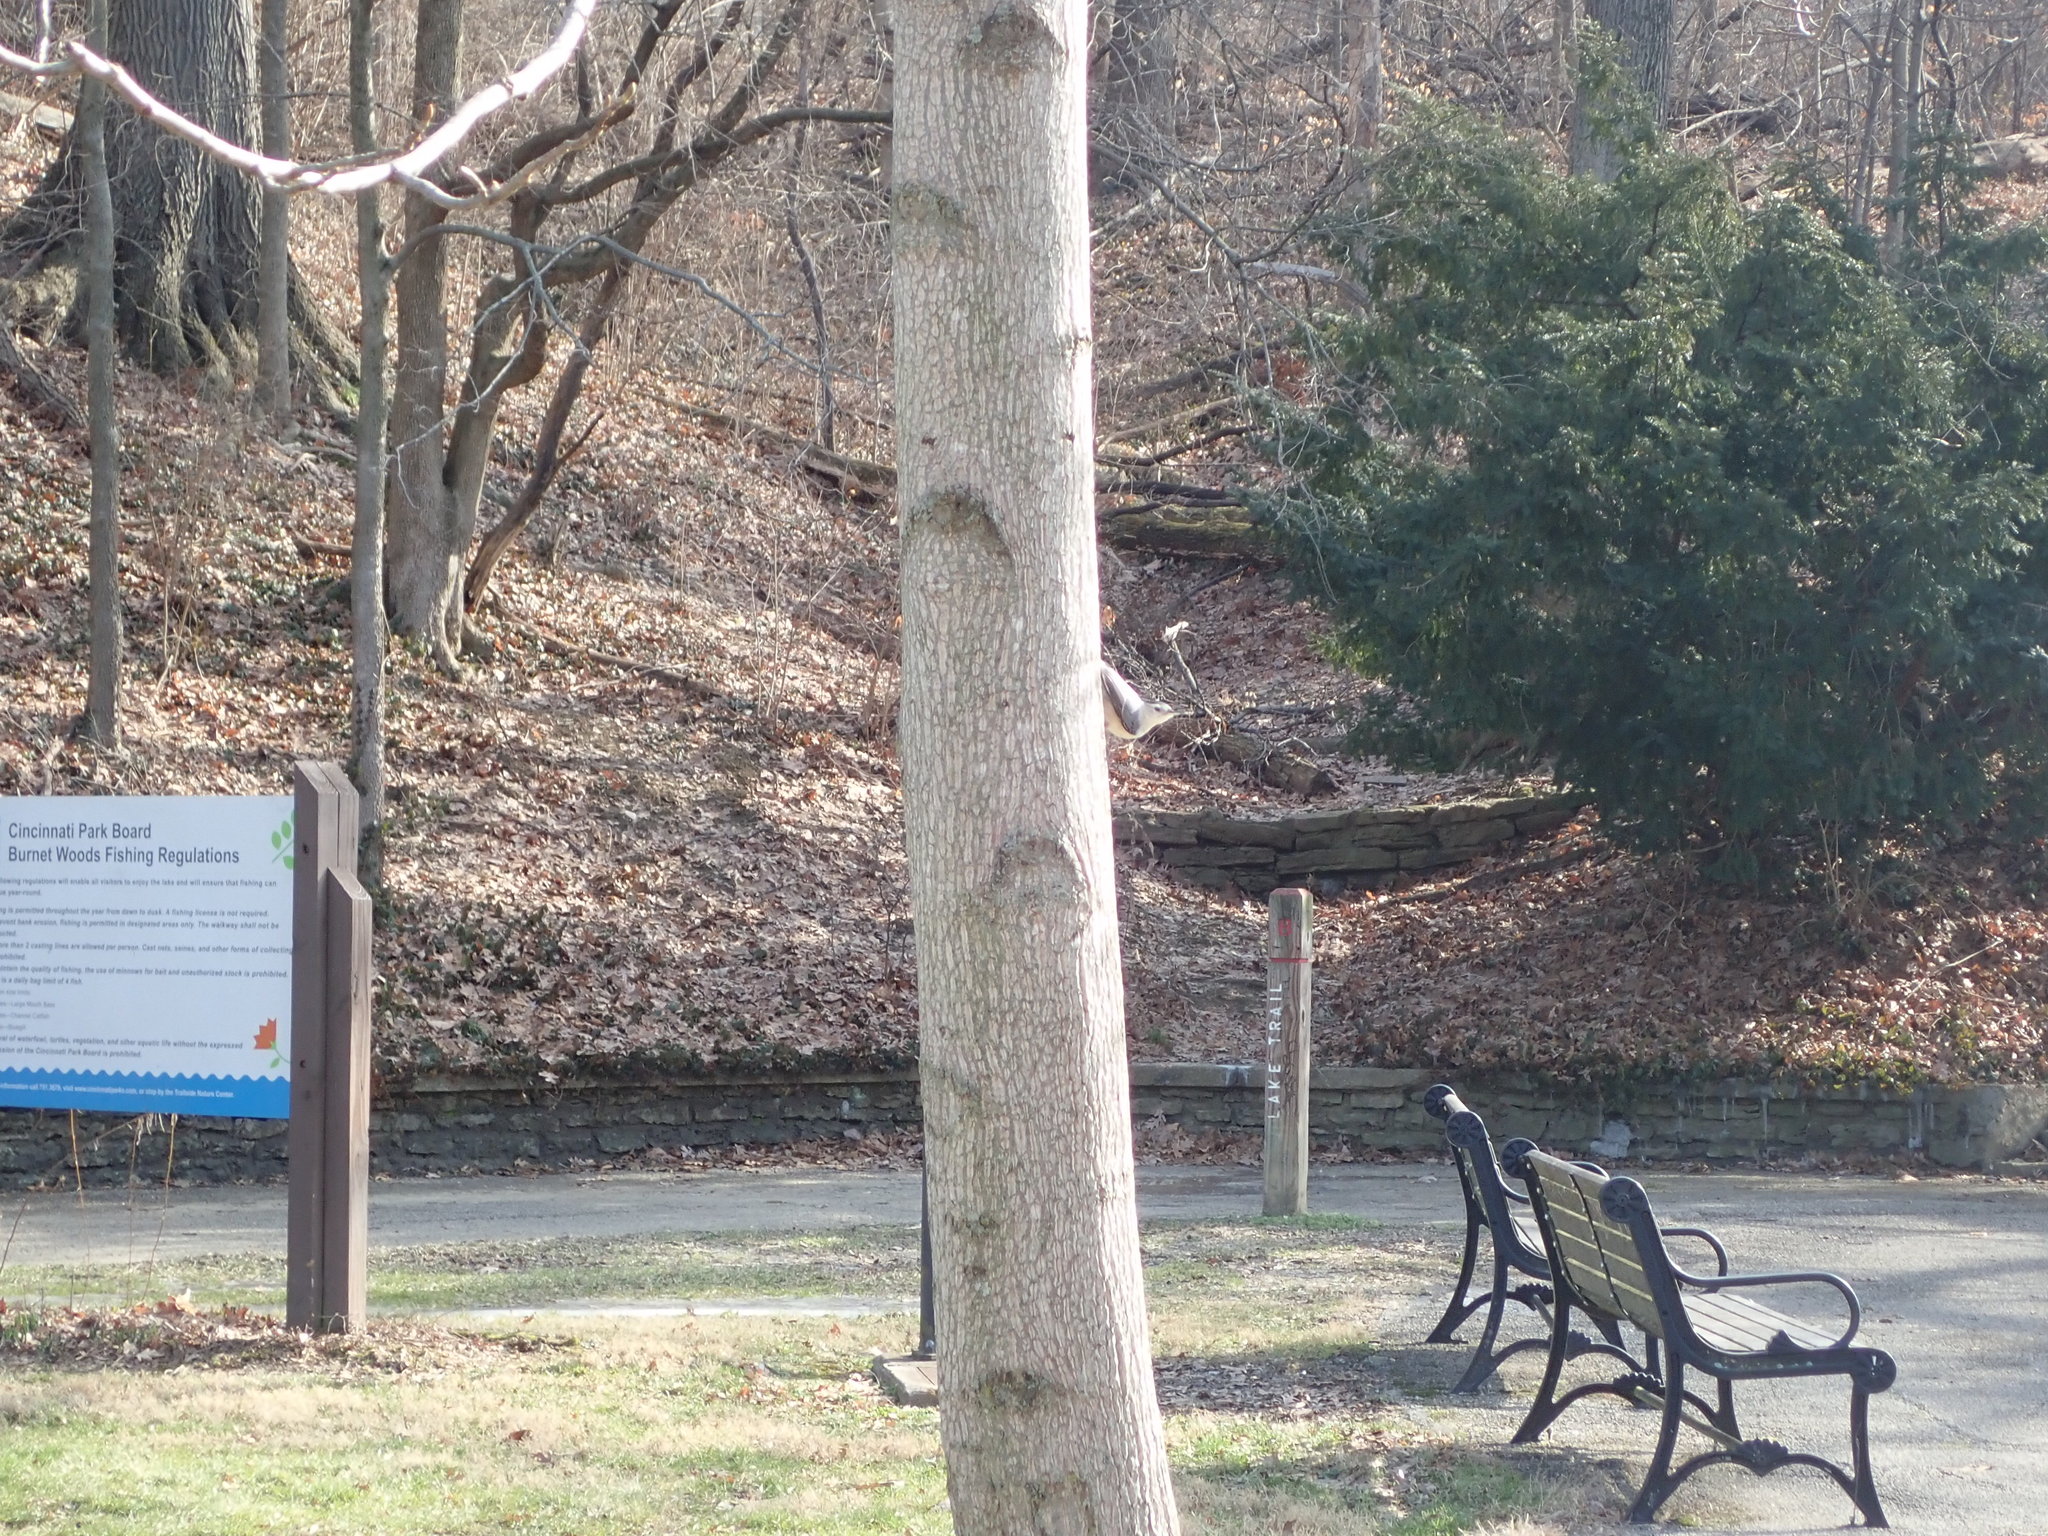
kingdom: Animalia
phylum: Chordata
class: Aves
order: Passeriformes
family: Sittidae
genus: Sitta
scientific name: Sitta carolinensis
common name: White-breasted nuthatch
